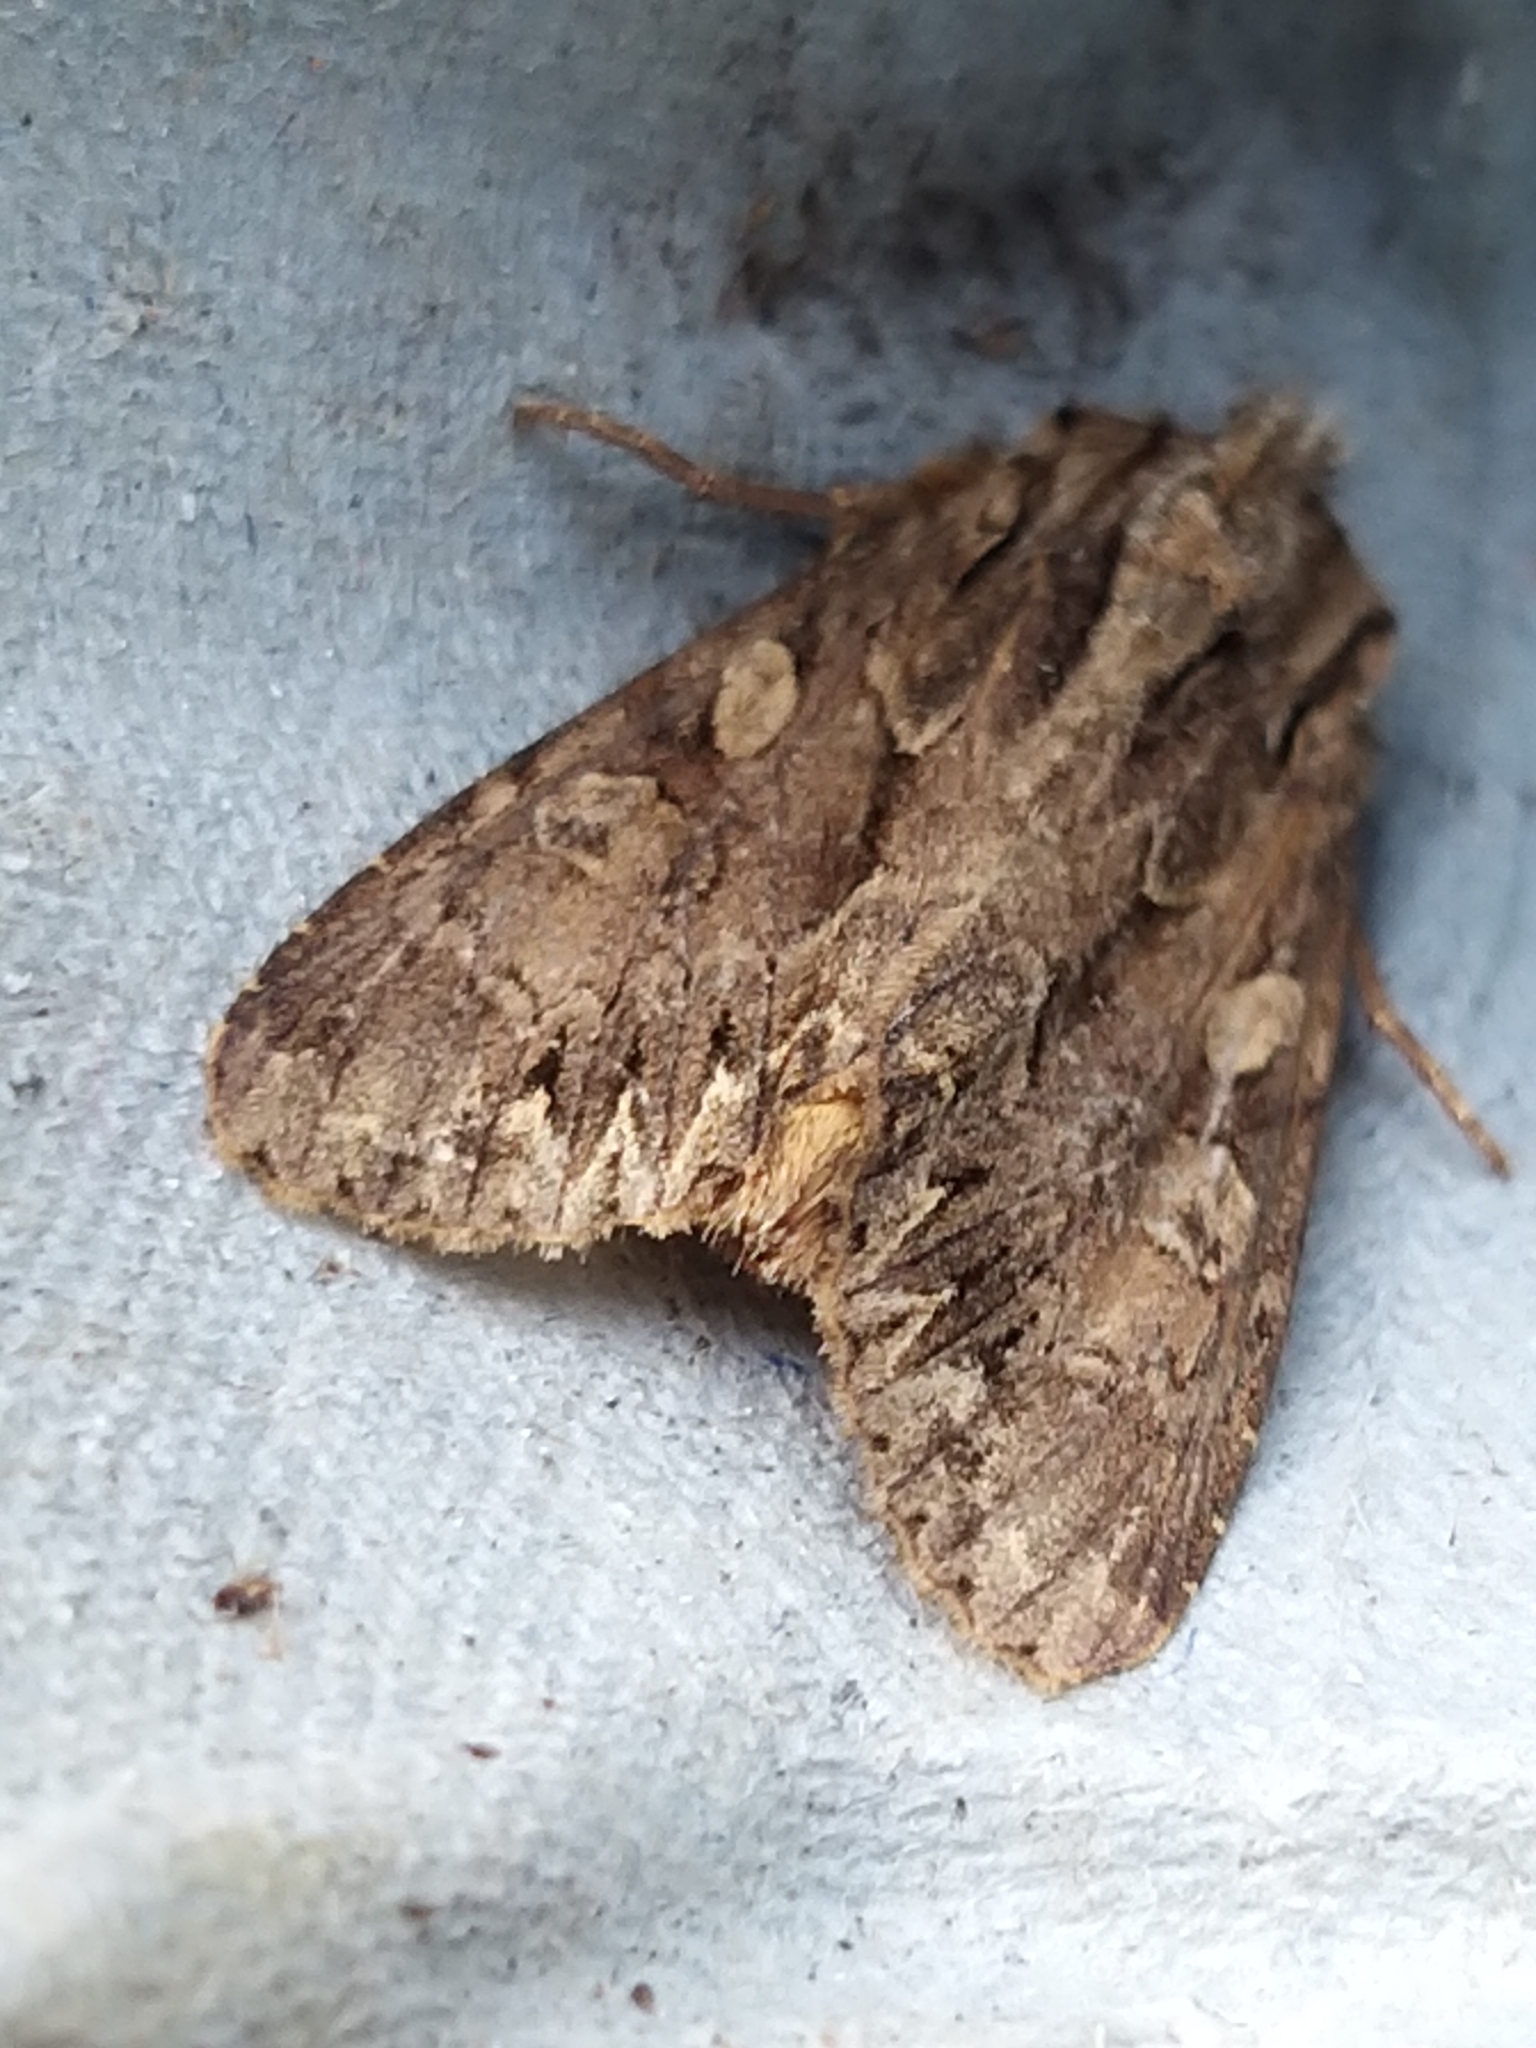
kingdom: Animalia
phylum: Arthropoda
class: Insecta
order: Lepidoptera
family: Noctuidae
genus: Apamea
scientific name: Apamea monoglypha
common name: Dark arches
